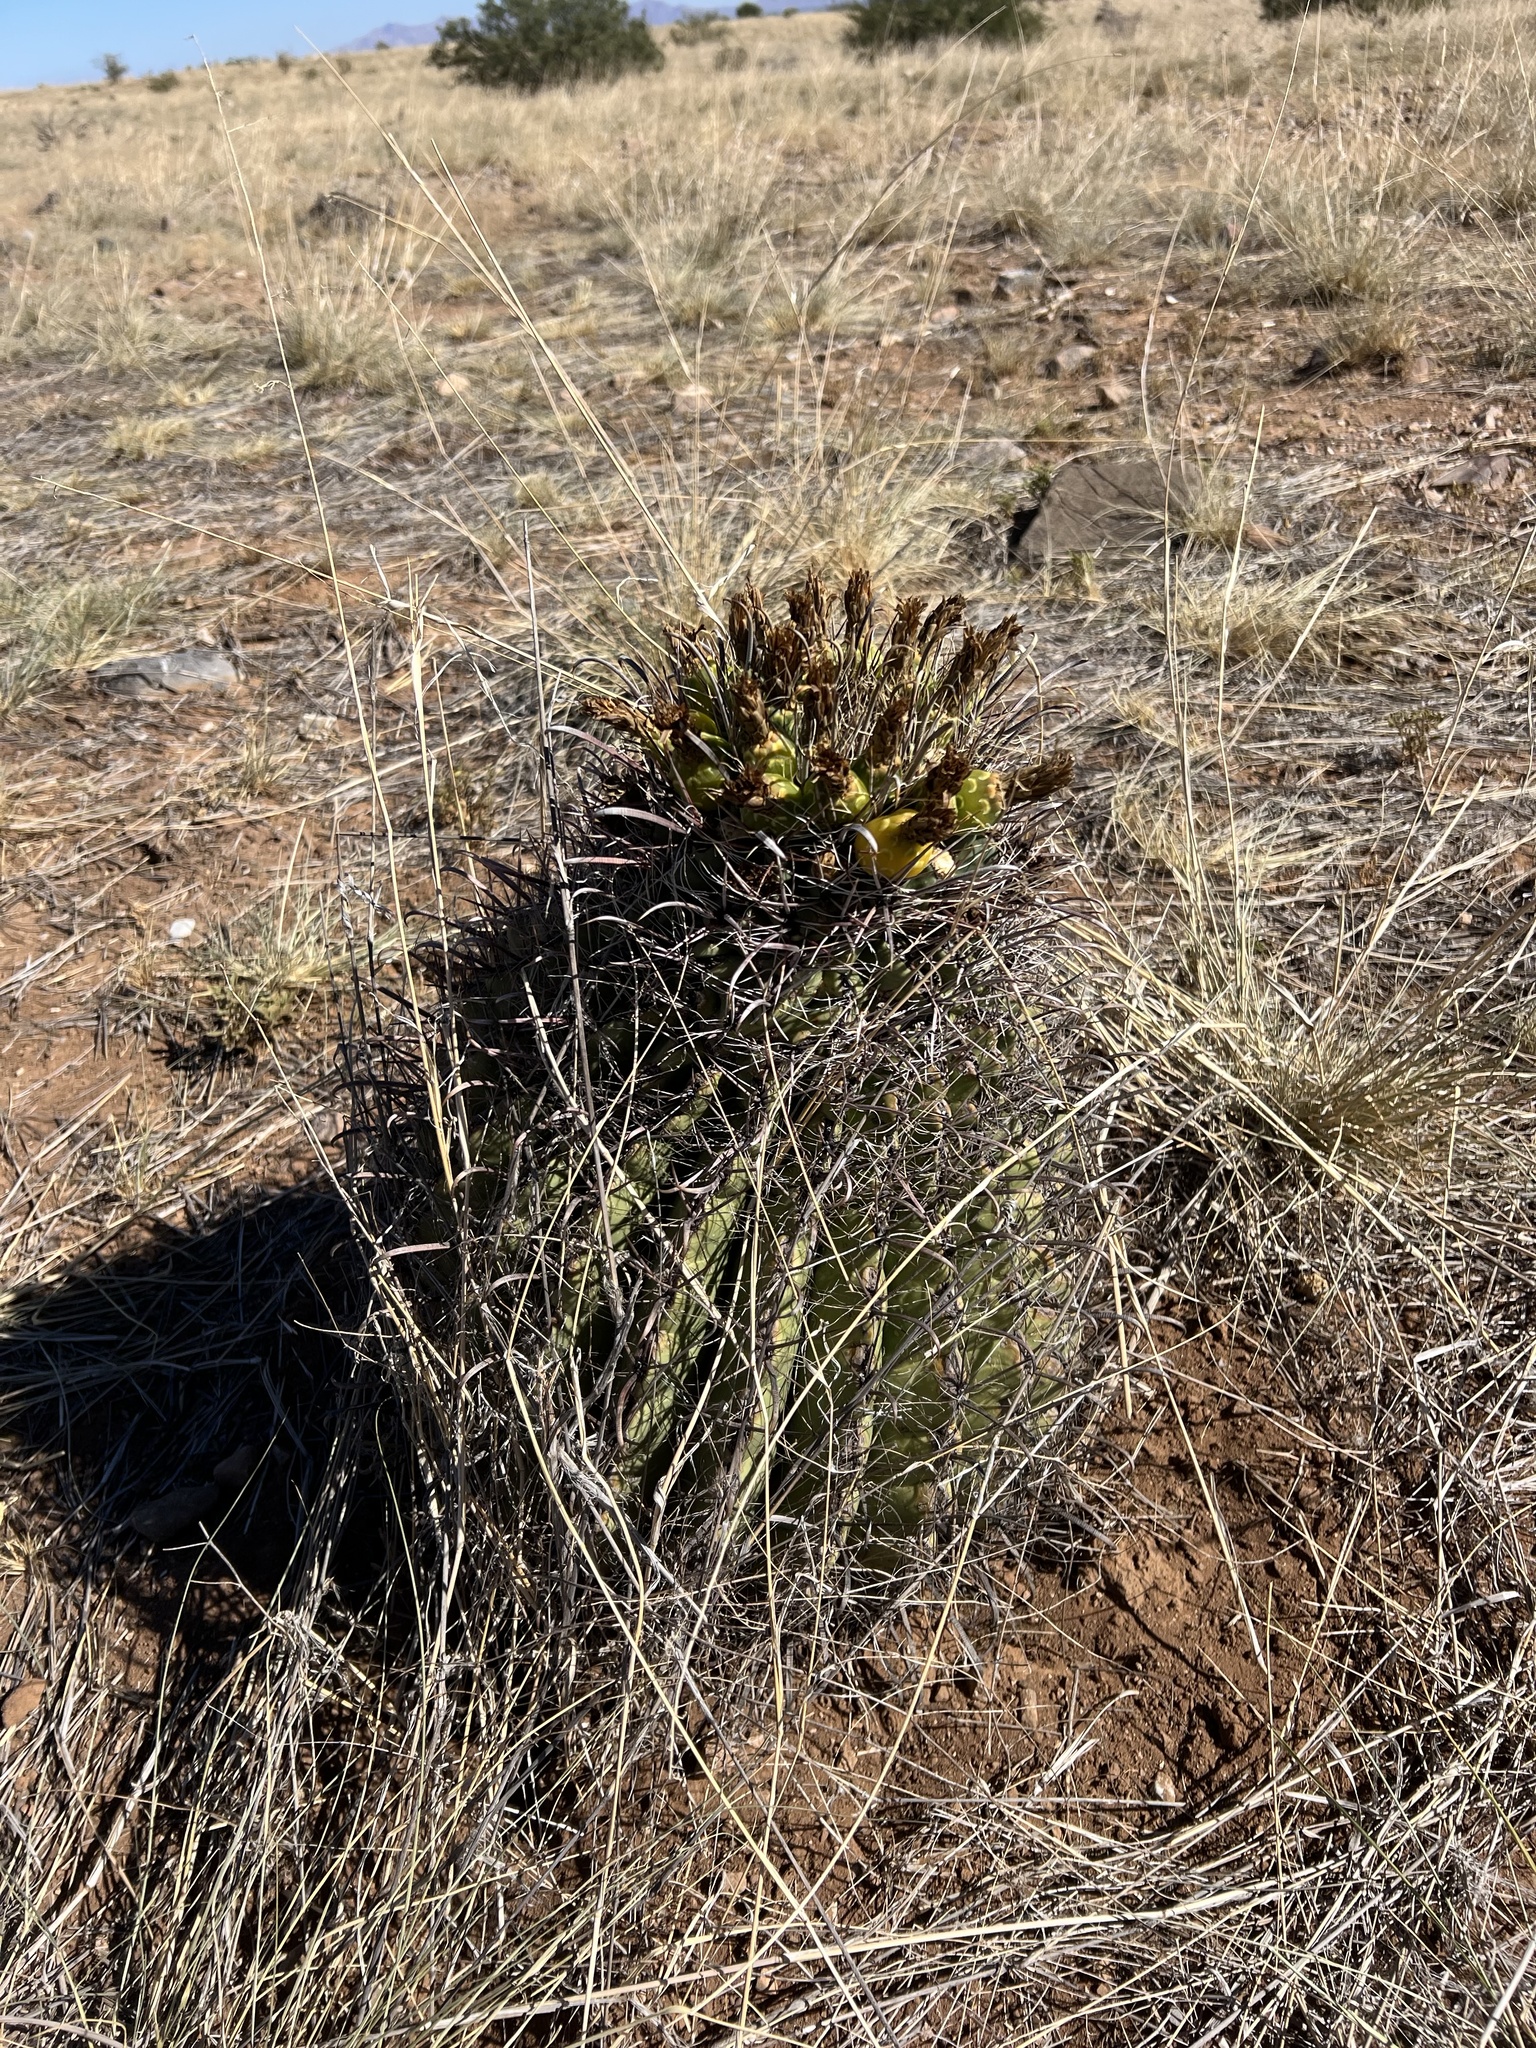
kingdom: Plantae
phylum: Tracheophyta
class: Magnoliopsida
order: Caryophyllales
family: Cactaceae
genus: Ferocactus
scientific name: Ferocactus wislizeni
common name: Candy barrel cactus
